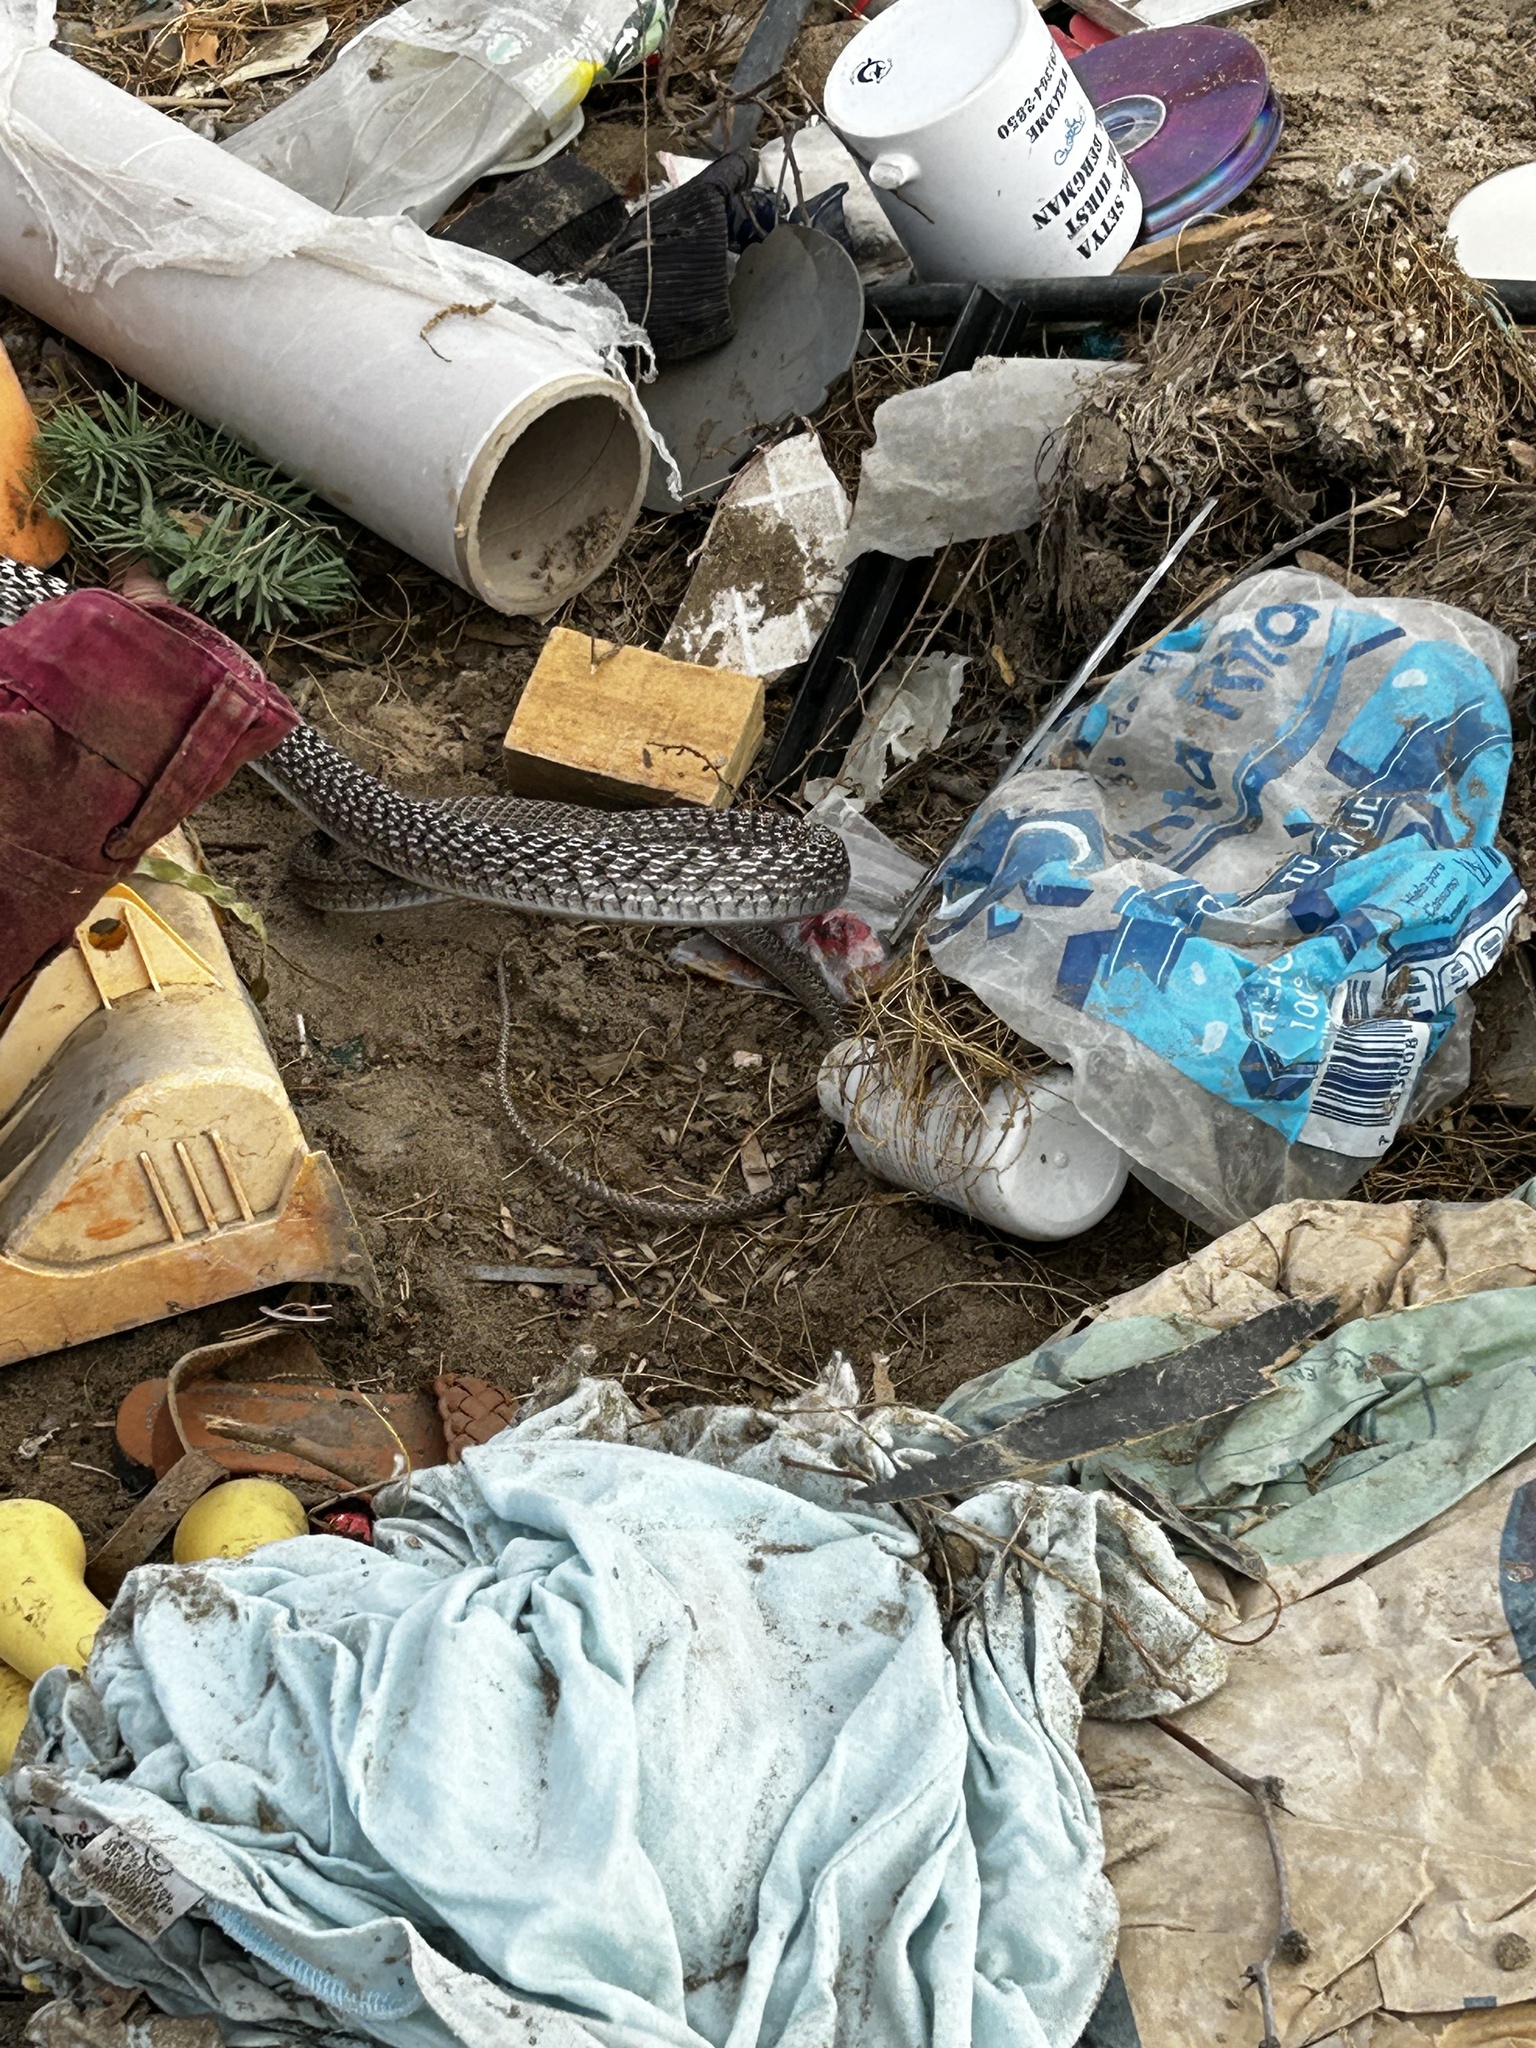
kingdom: Animalia
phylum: Chordata
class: Squamata
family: Colubridae
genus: Masticophis
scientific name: Masticophis fuliginosus
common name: Baja california coachwhip
